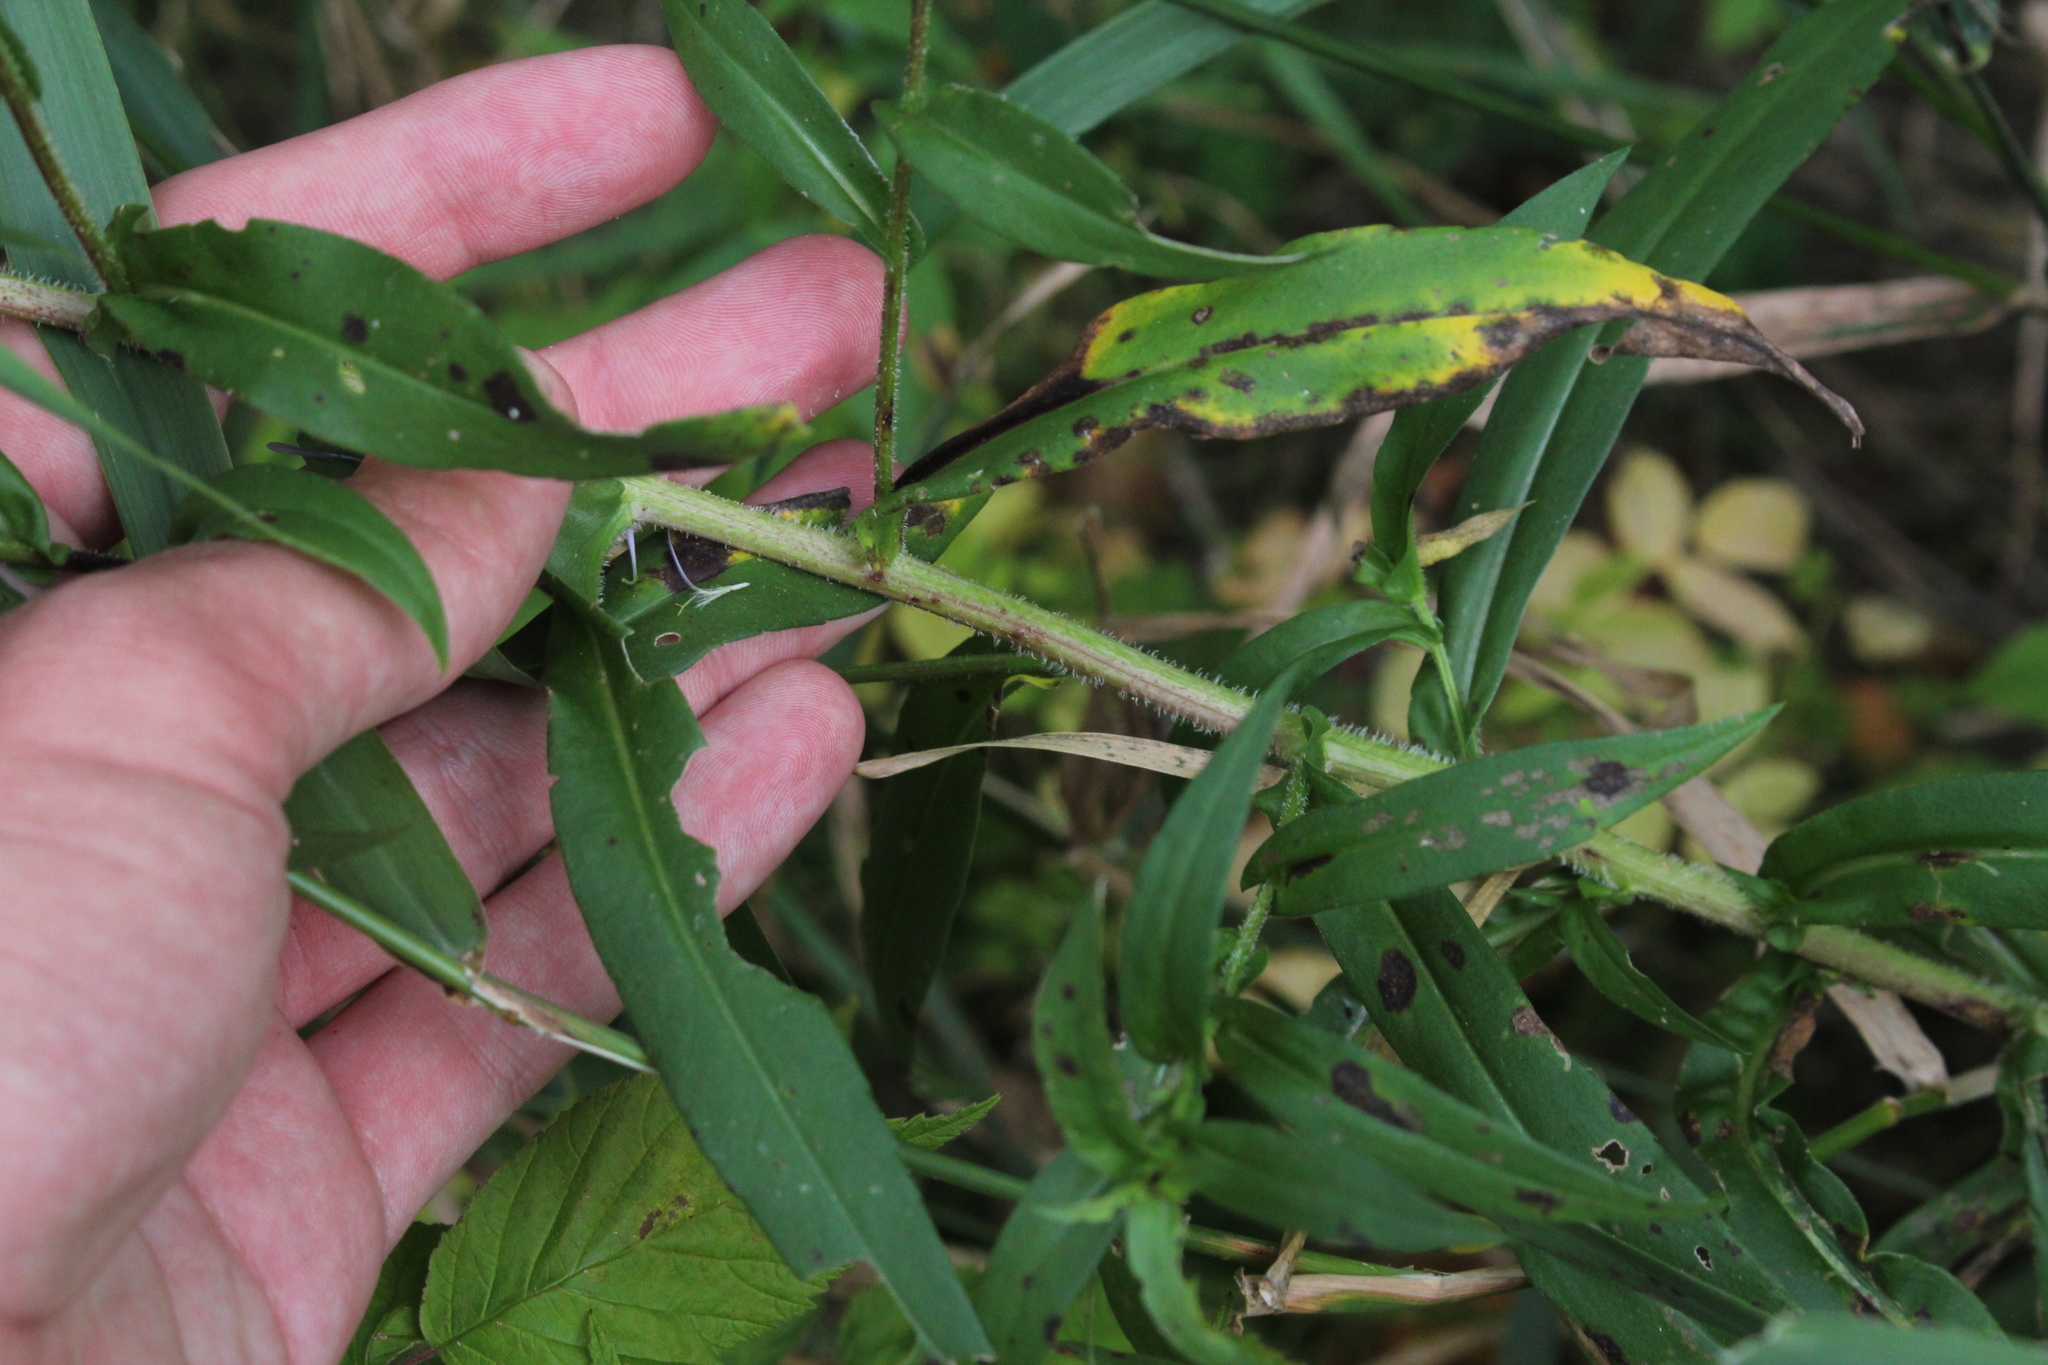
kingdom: Plantae
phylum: Tracheophyta
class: Magnoliopsida
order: Asterales
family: Asteraceae
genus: Symphyotrichum
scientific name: Symphyotrichum puniceum
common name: Bog aster
